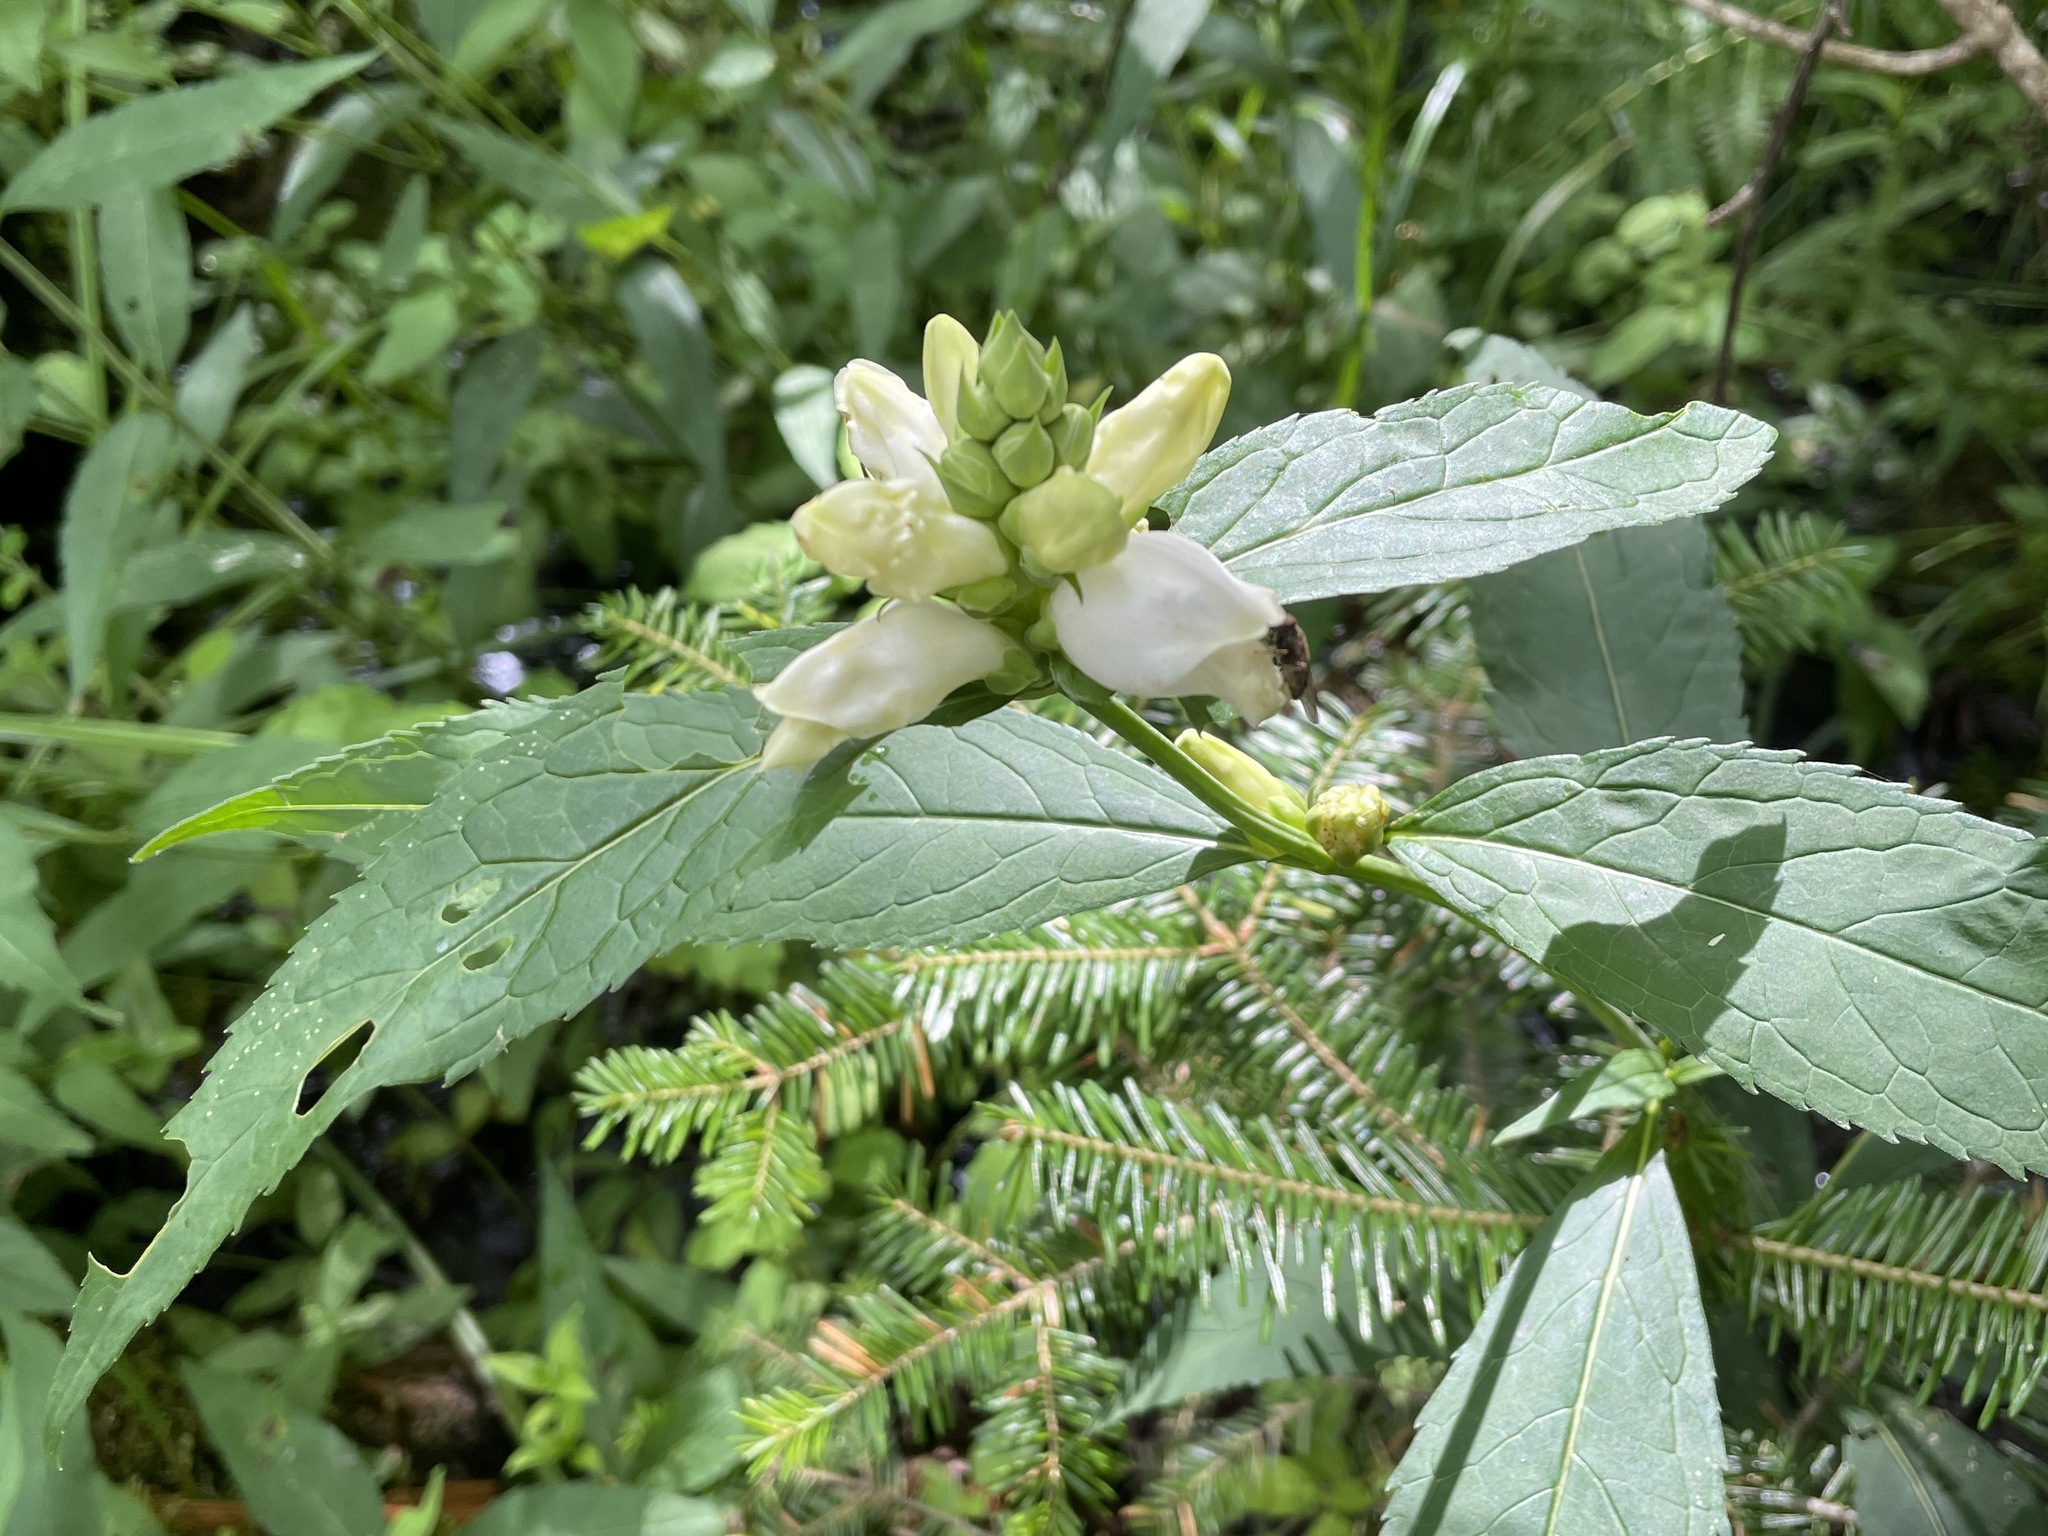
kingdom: Plantae
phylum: Tracheophyta
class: Magnoliopsida
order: Lamiales
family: Plantaginaceae
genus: Chelone
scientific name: Chelone glabra
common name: Snakehead
